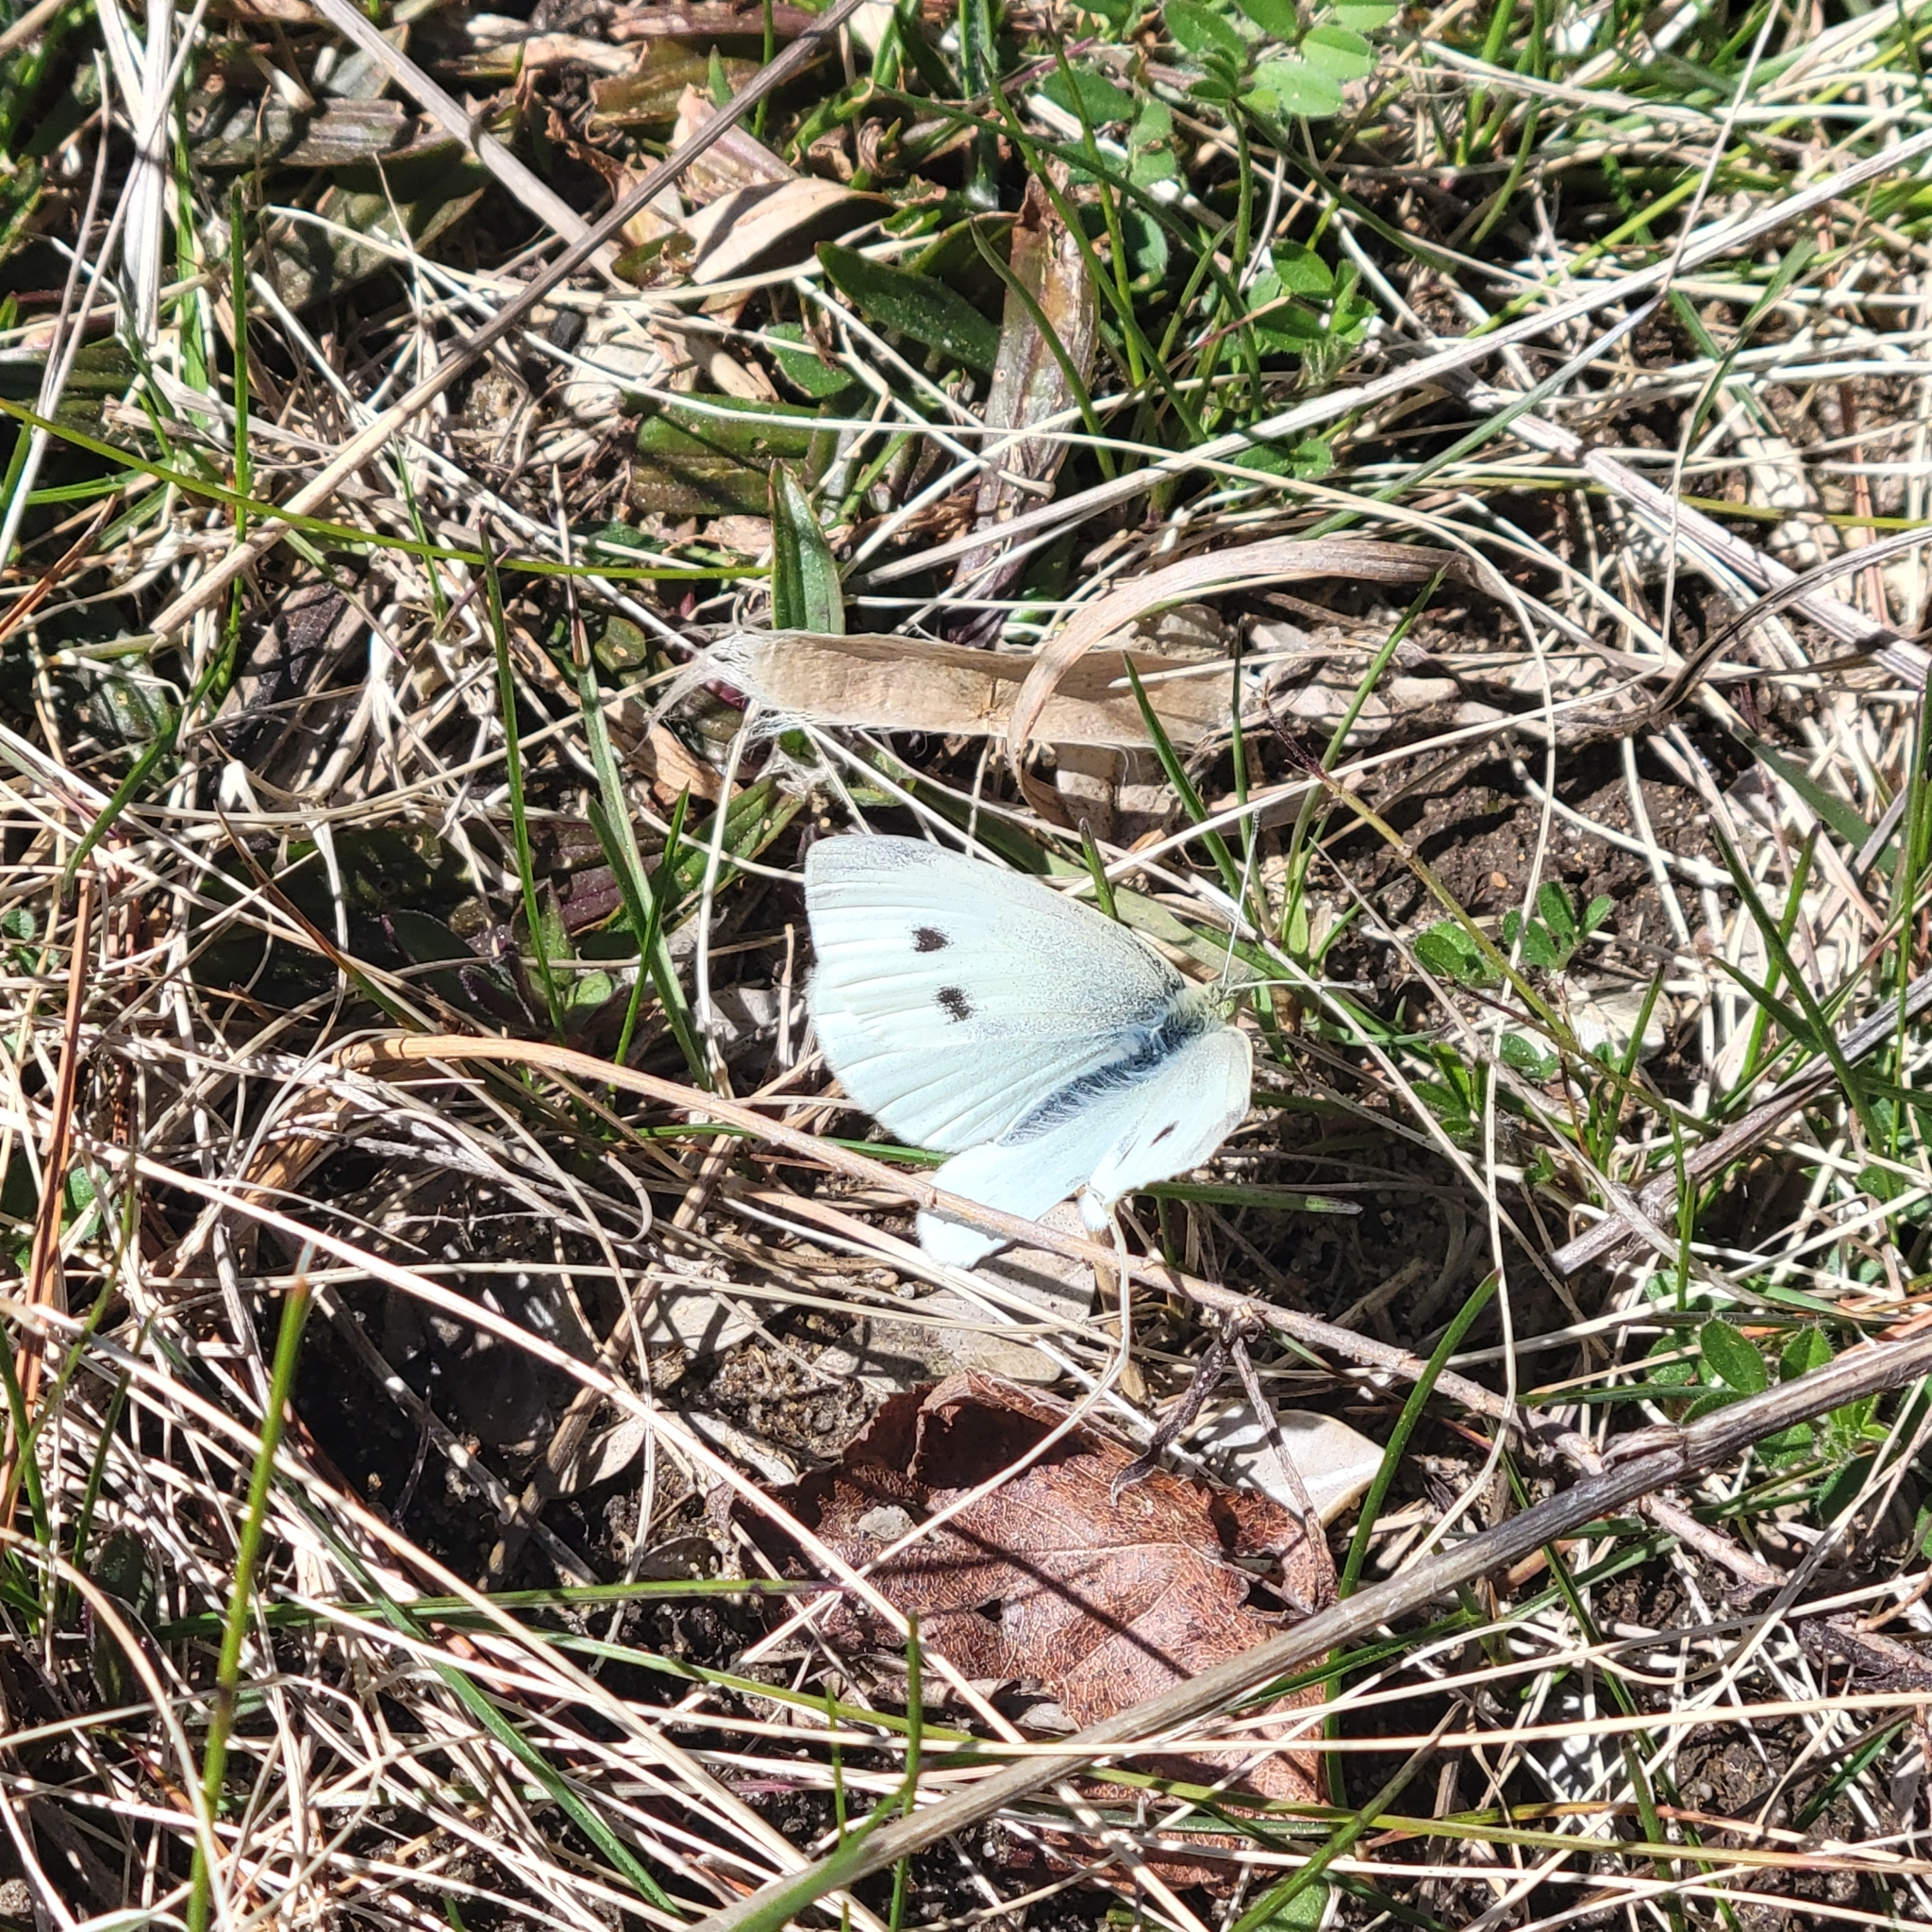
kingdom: Animalia
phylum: Arthropoda
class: Insecta
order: Lepidoptera
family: Pieridae
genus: Pieris
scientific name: Pieris rapae
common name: Small white
